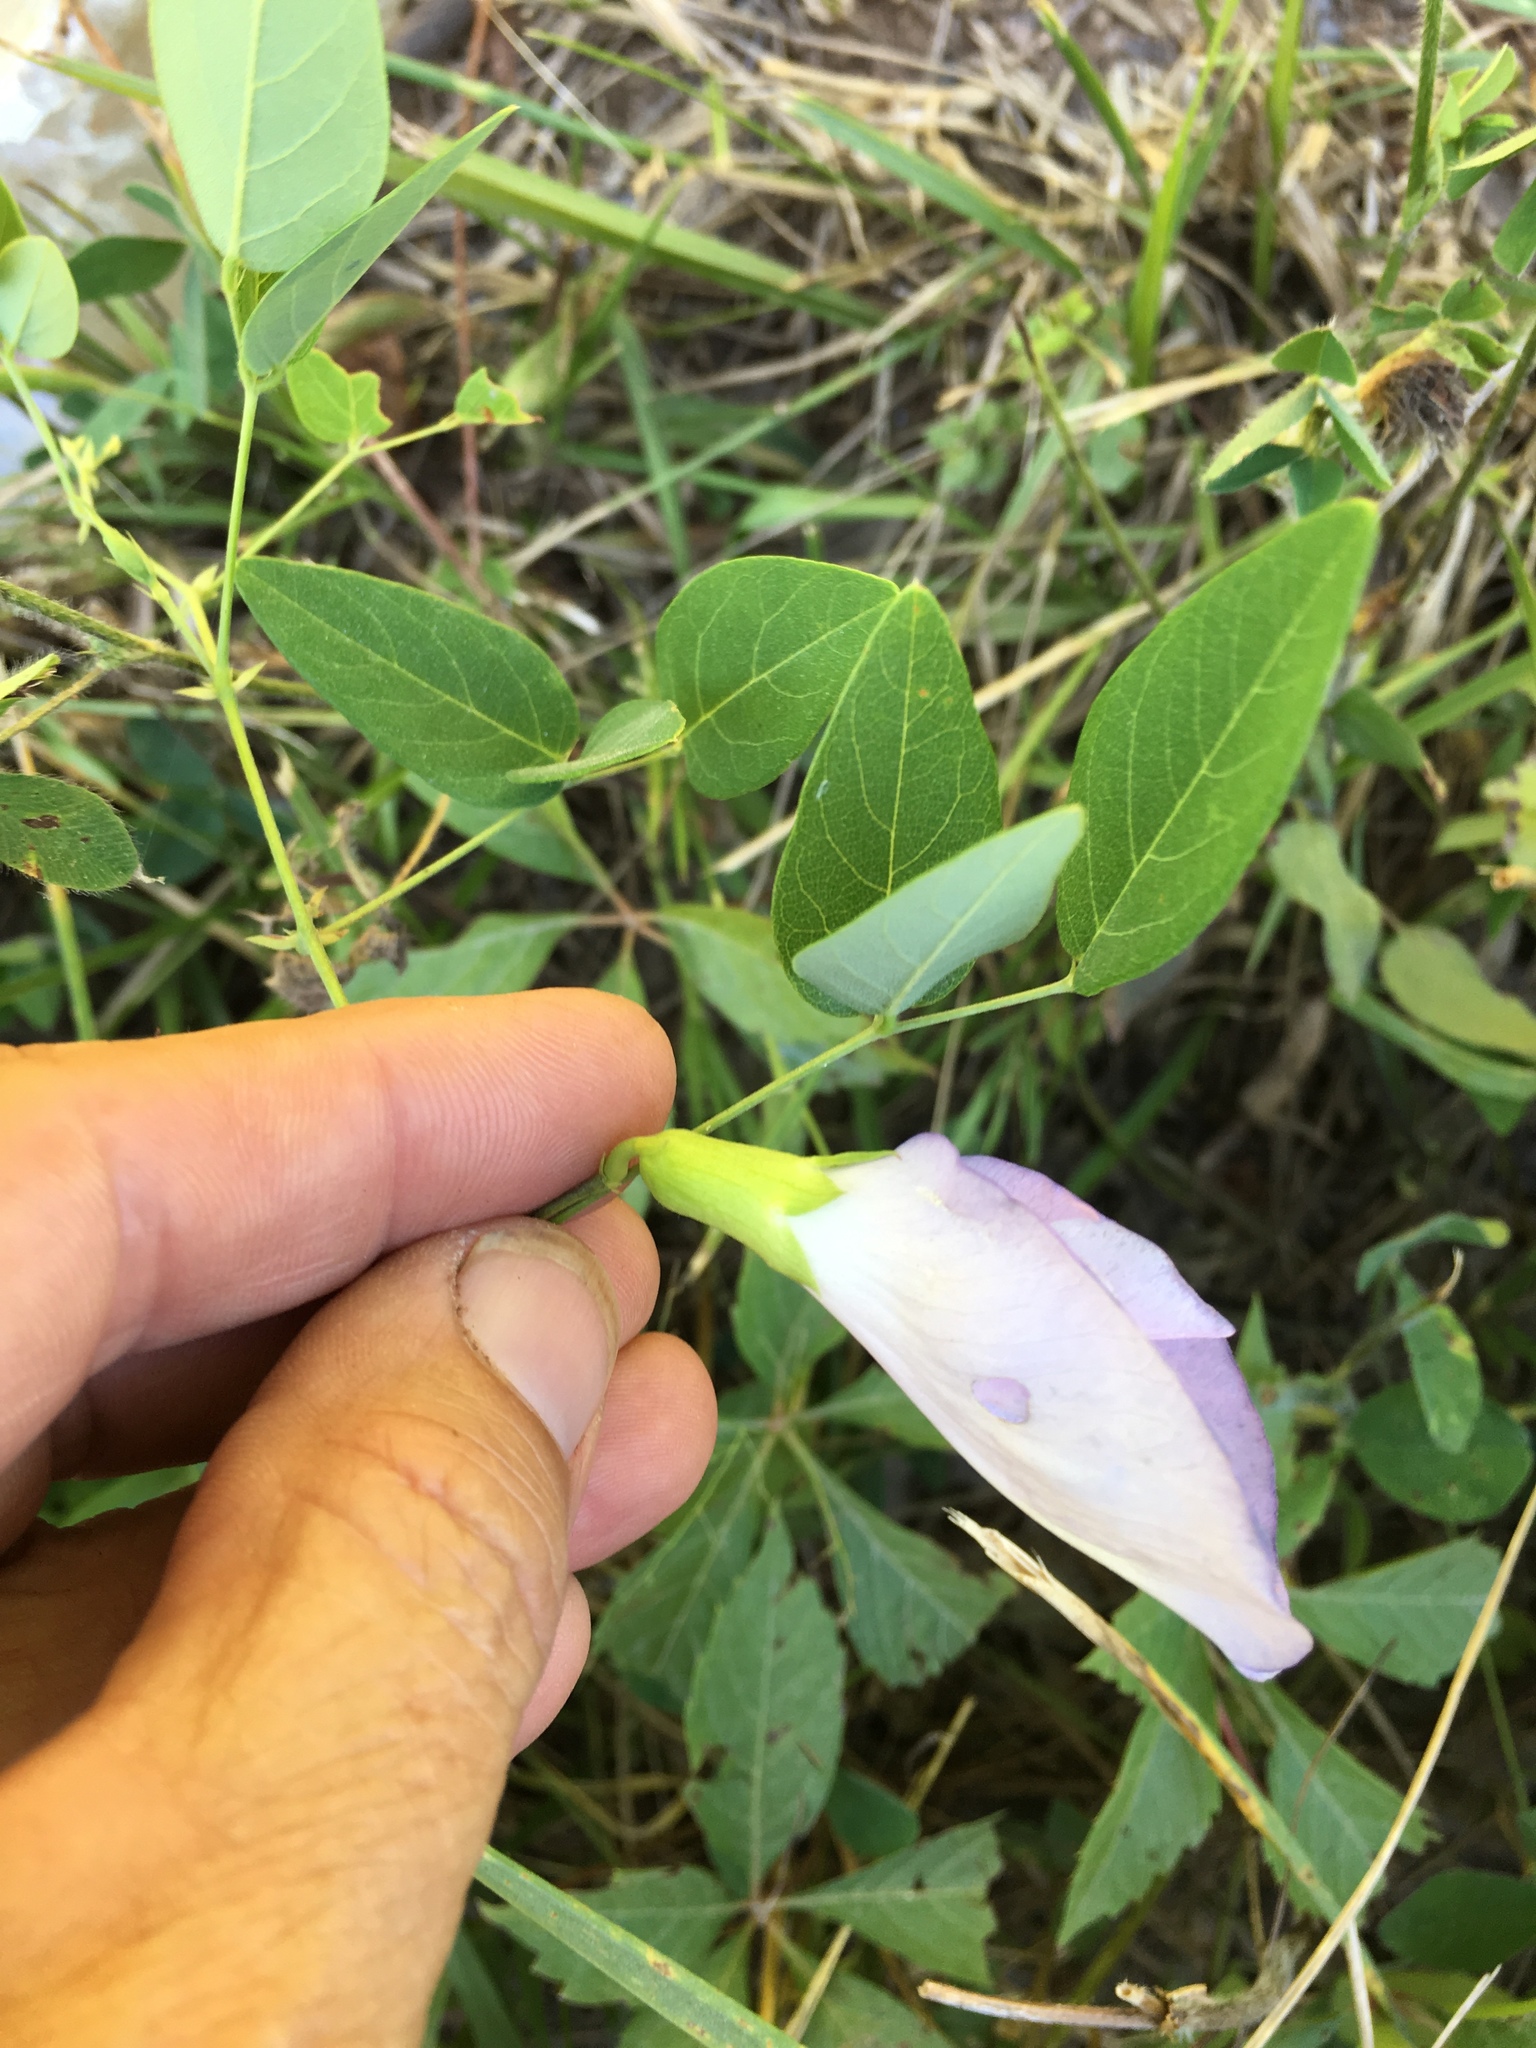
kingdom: Plantae
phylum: Tracheophyta
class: Magnoliopsida
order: Fabales
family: Fabaceae
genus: Clitoria
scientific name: Clitoria mariana
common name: Butterfly-pea
